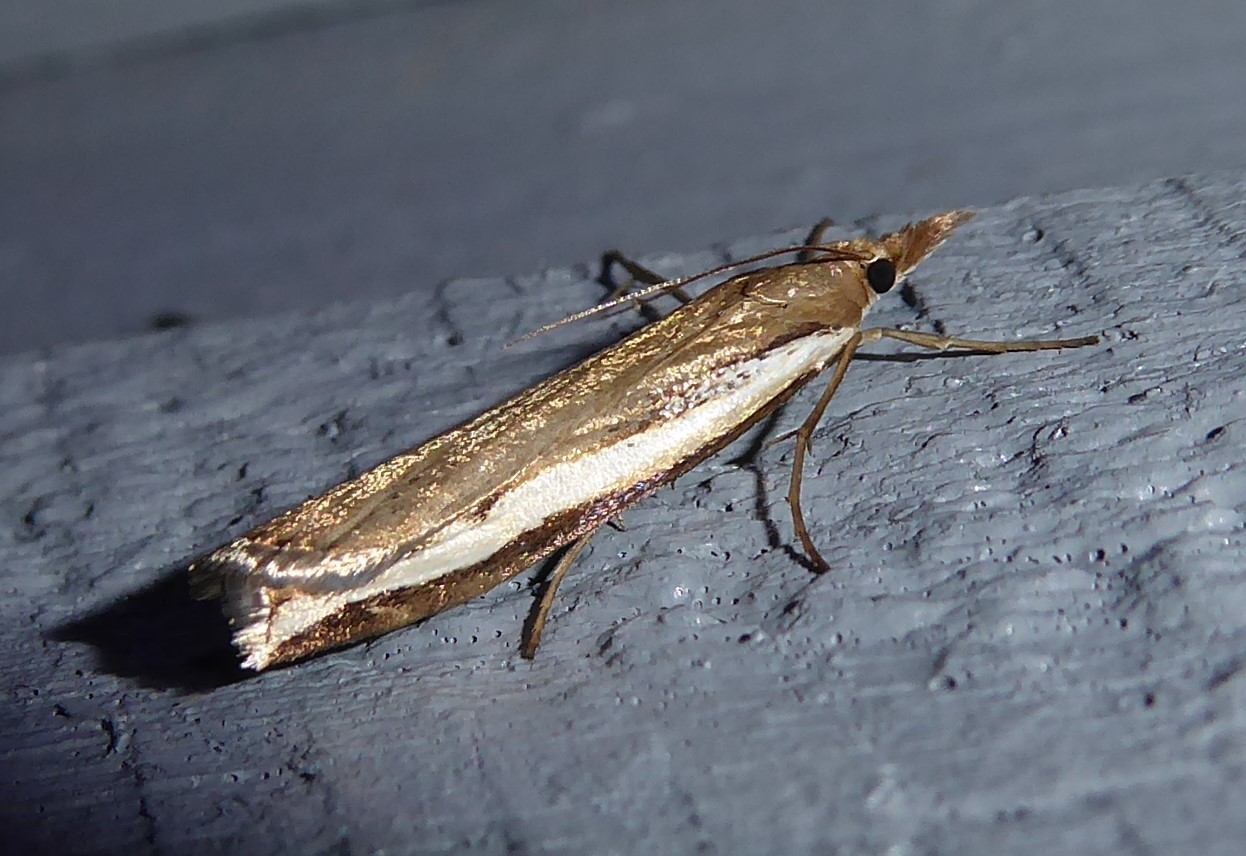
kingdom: Animalia
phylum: Arthropoda
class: Insecta
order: Lepidoptera
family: Crambidae
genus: Orocrambus
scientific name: Orocrambus flexuosellus
